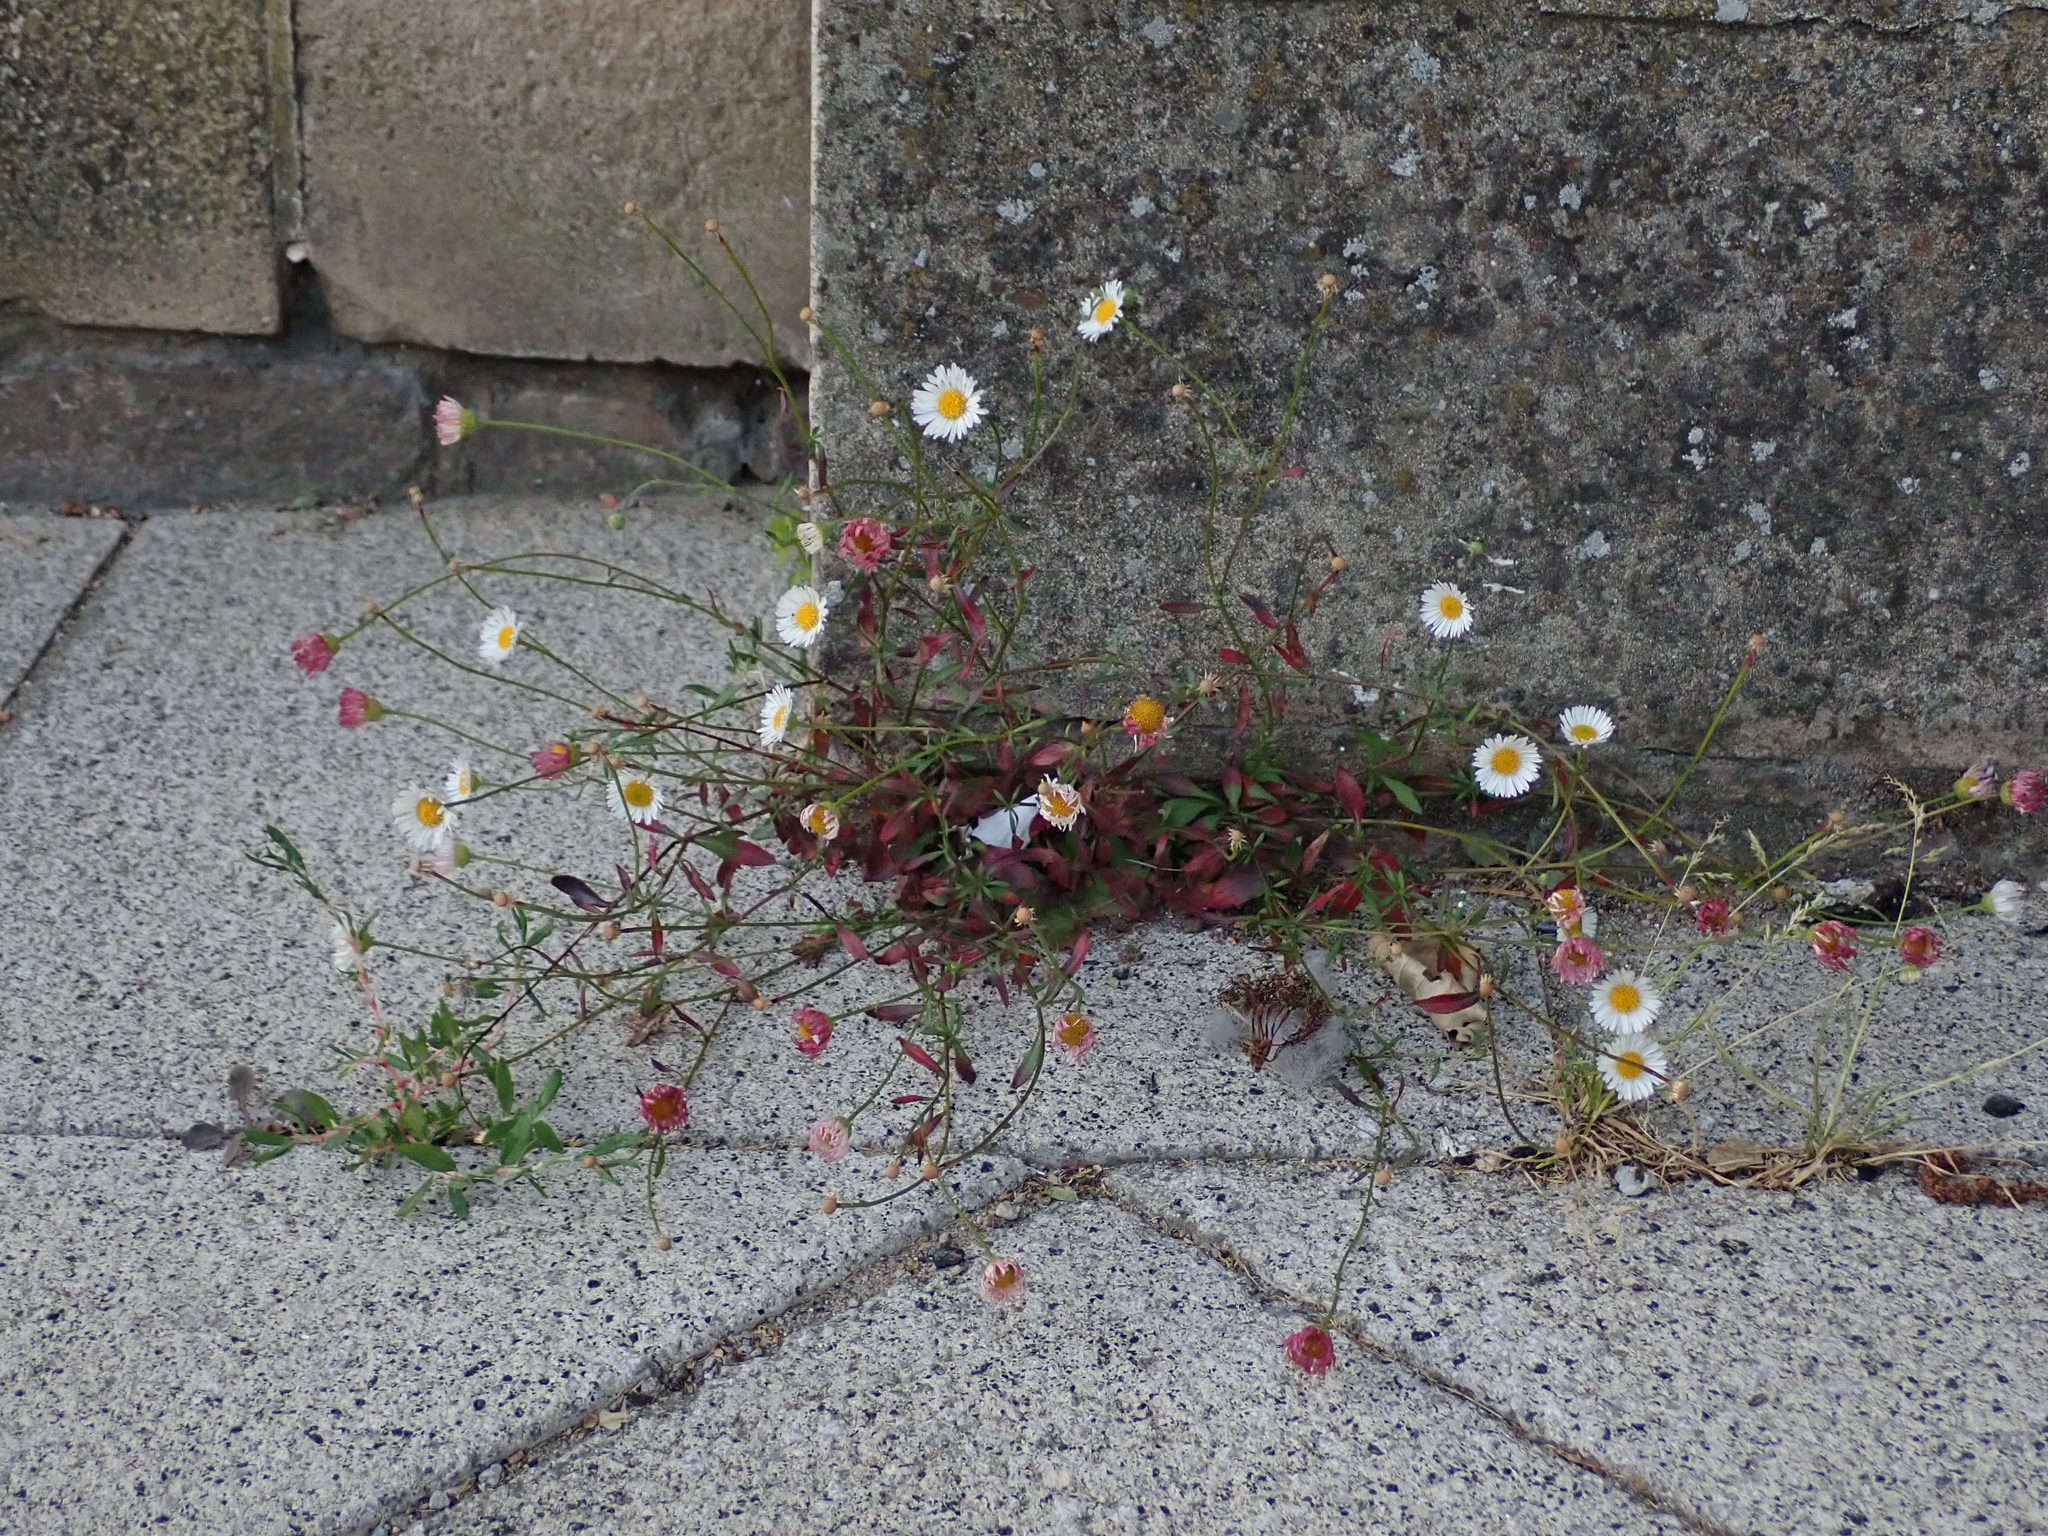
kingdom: Plantae
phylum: Tracheophyta
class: Magnoliopsida
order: Asterales
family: Asteraceae
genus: Erigeron
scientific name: Erigeron karvinskianus
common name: Mexican fleabane
